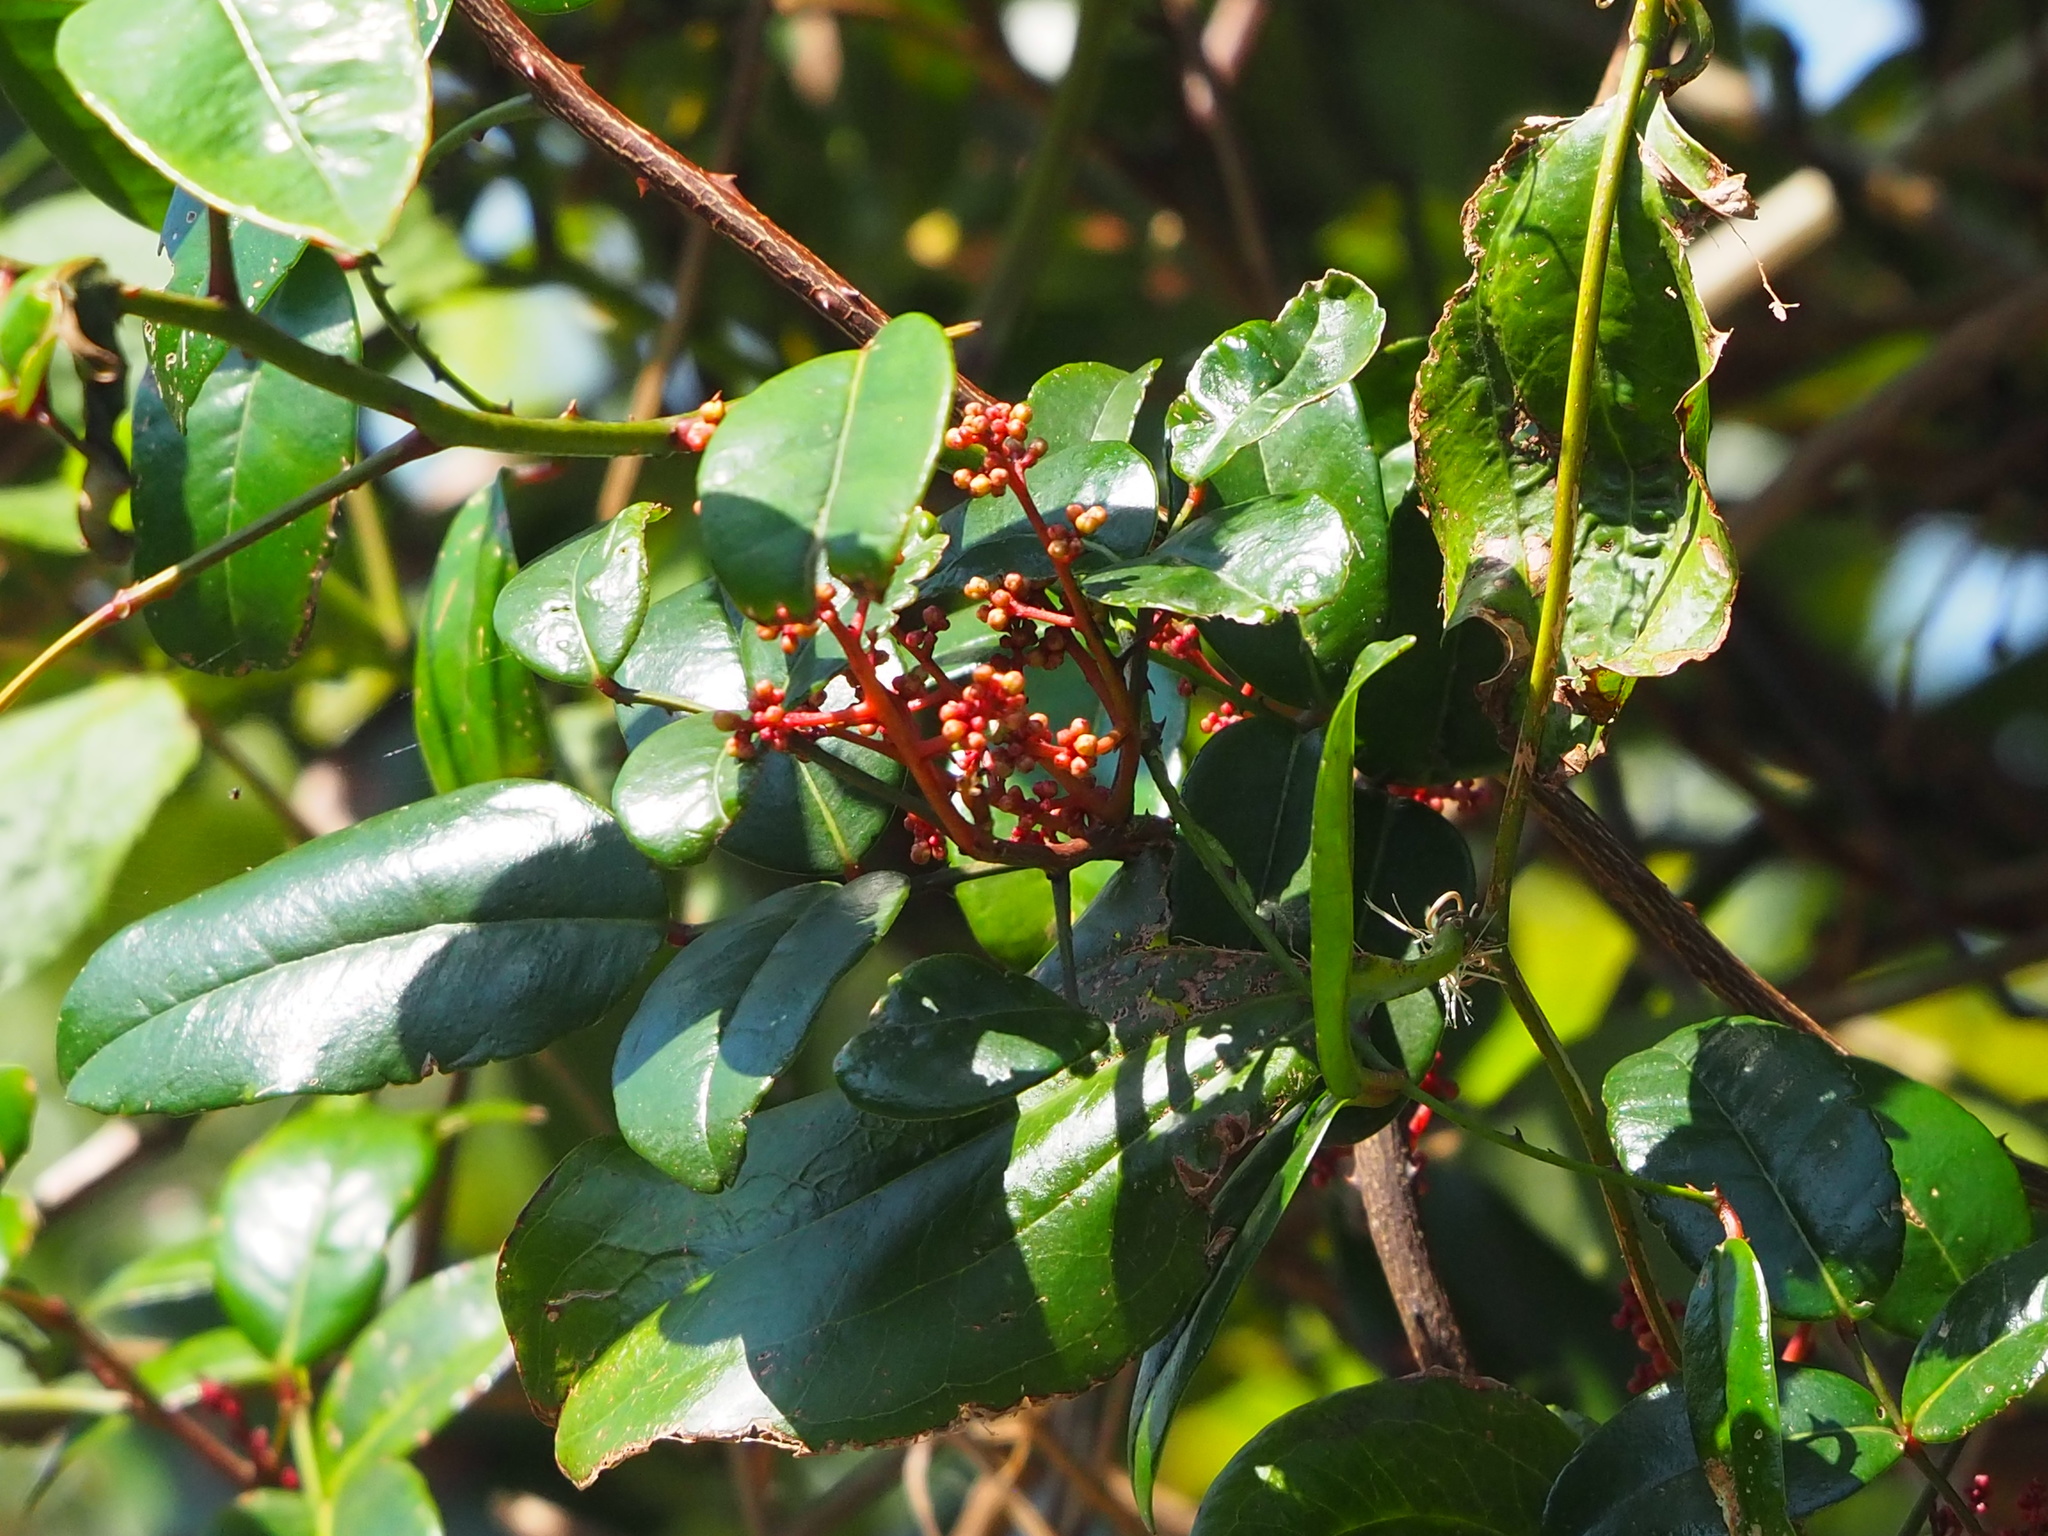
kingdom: Plantae
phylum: Tracheophyta
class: Magnoliopsida
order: Sapindales
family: Rutaceae
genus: Zanthoxylum
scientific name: Zanthoxylum nitidum
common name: Shiny-leaf prickly-ash
